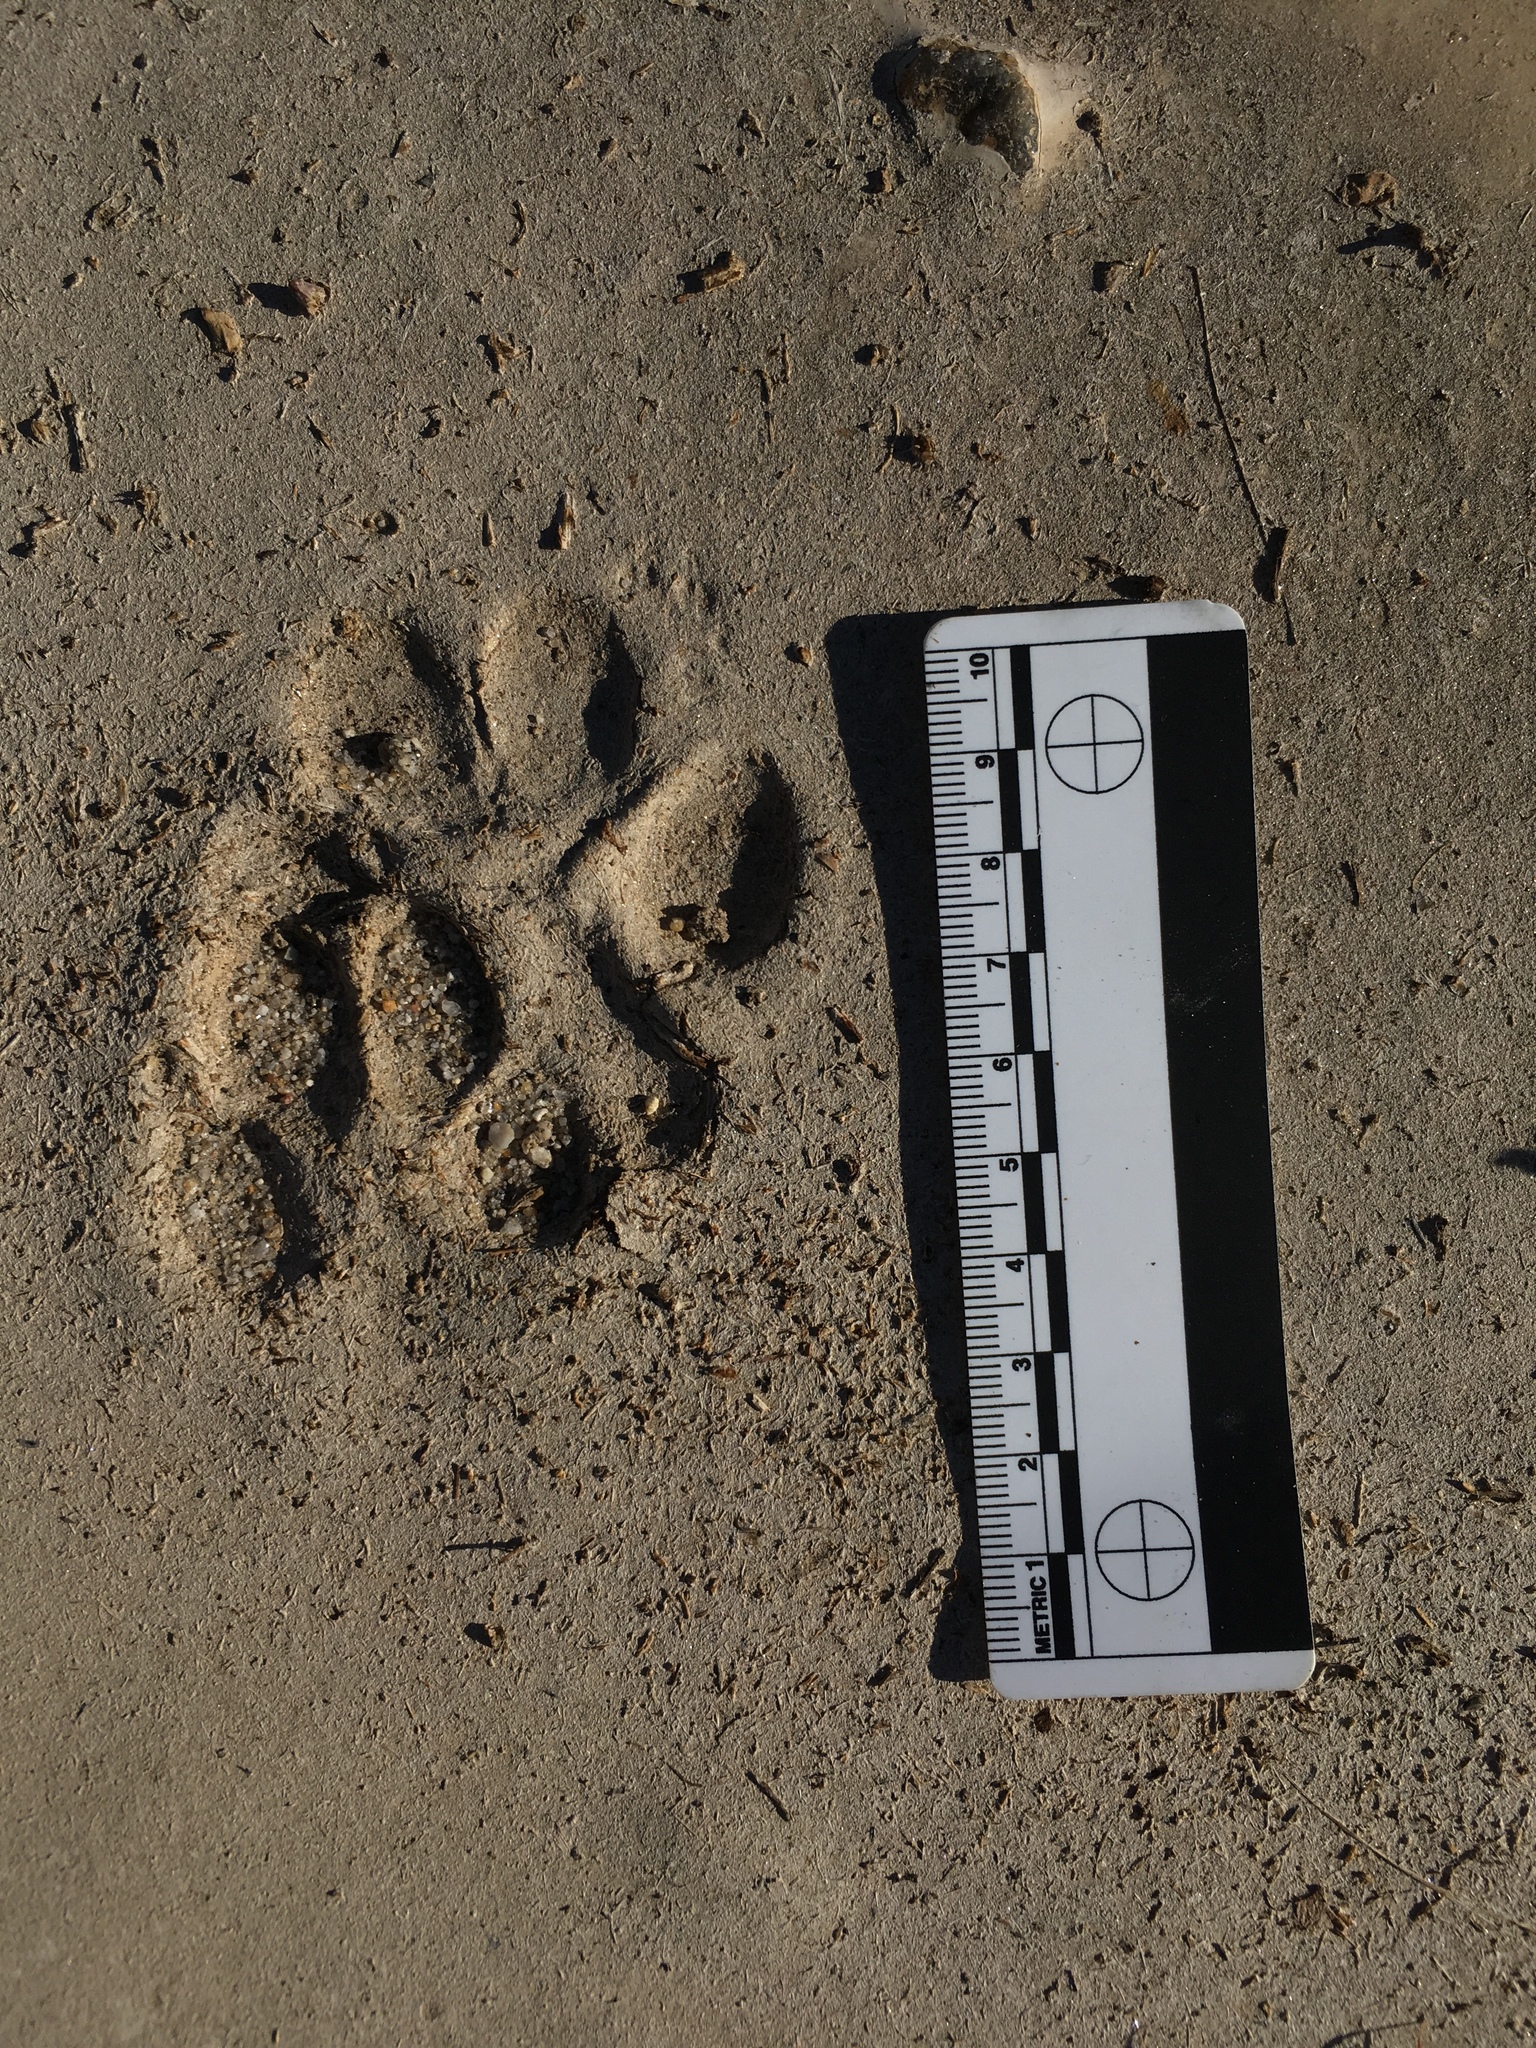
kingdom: Animalia
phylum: Chordata
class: Mammalia
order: Carnivora
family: Canidae
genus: Canis
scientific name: Canis latrans
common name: Coyote
